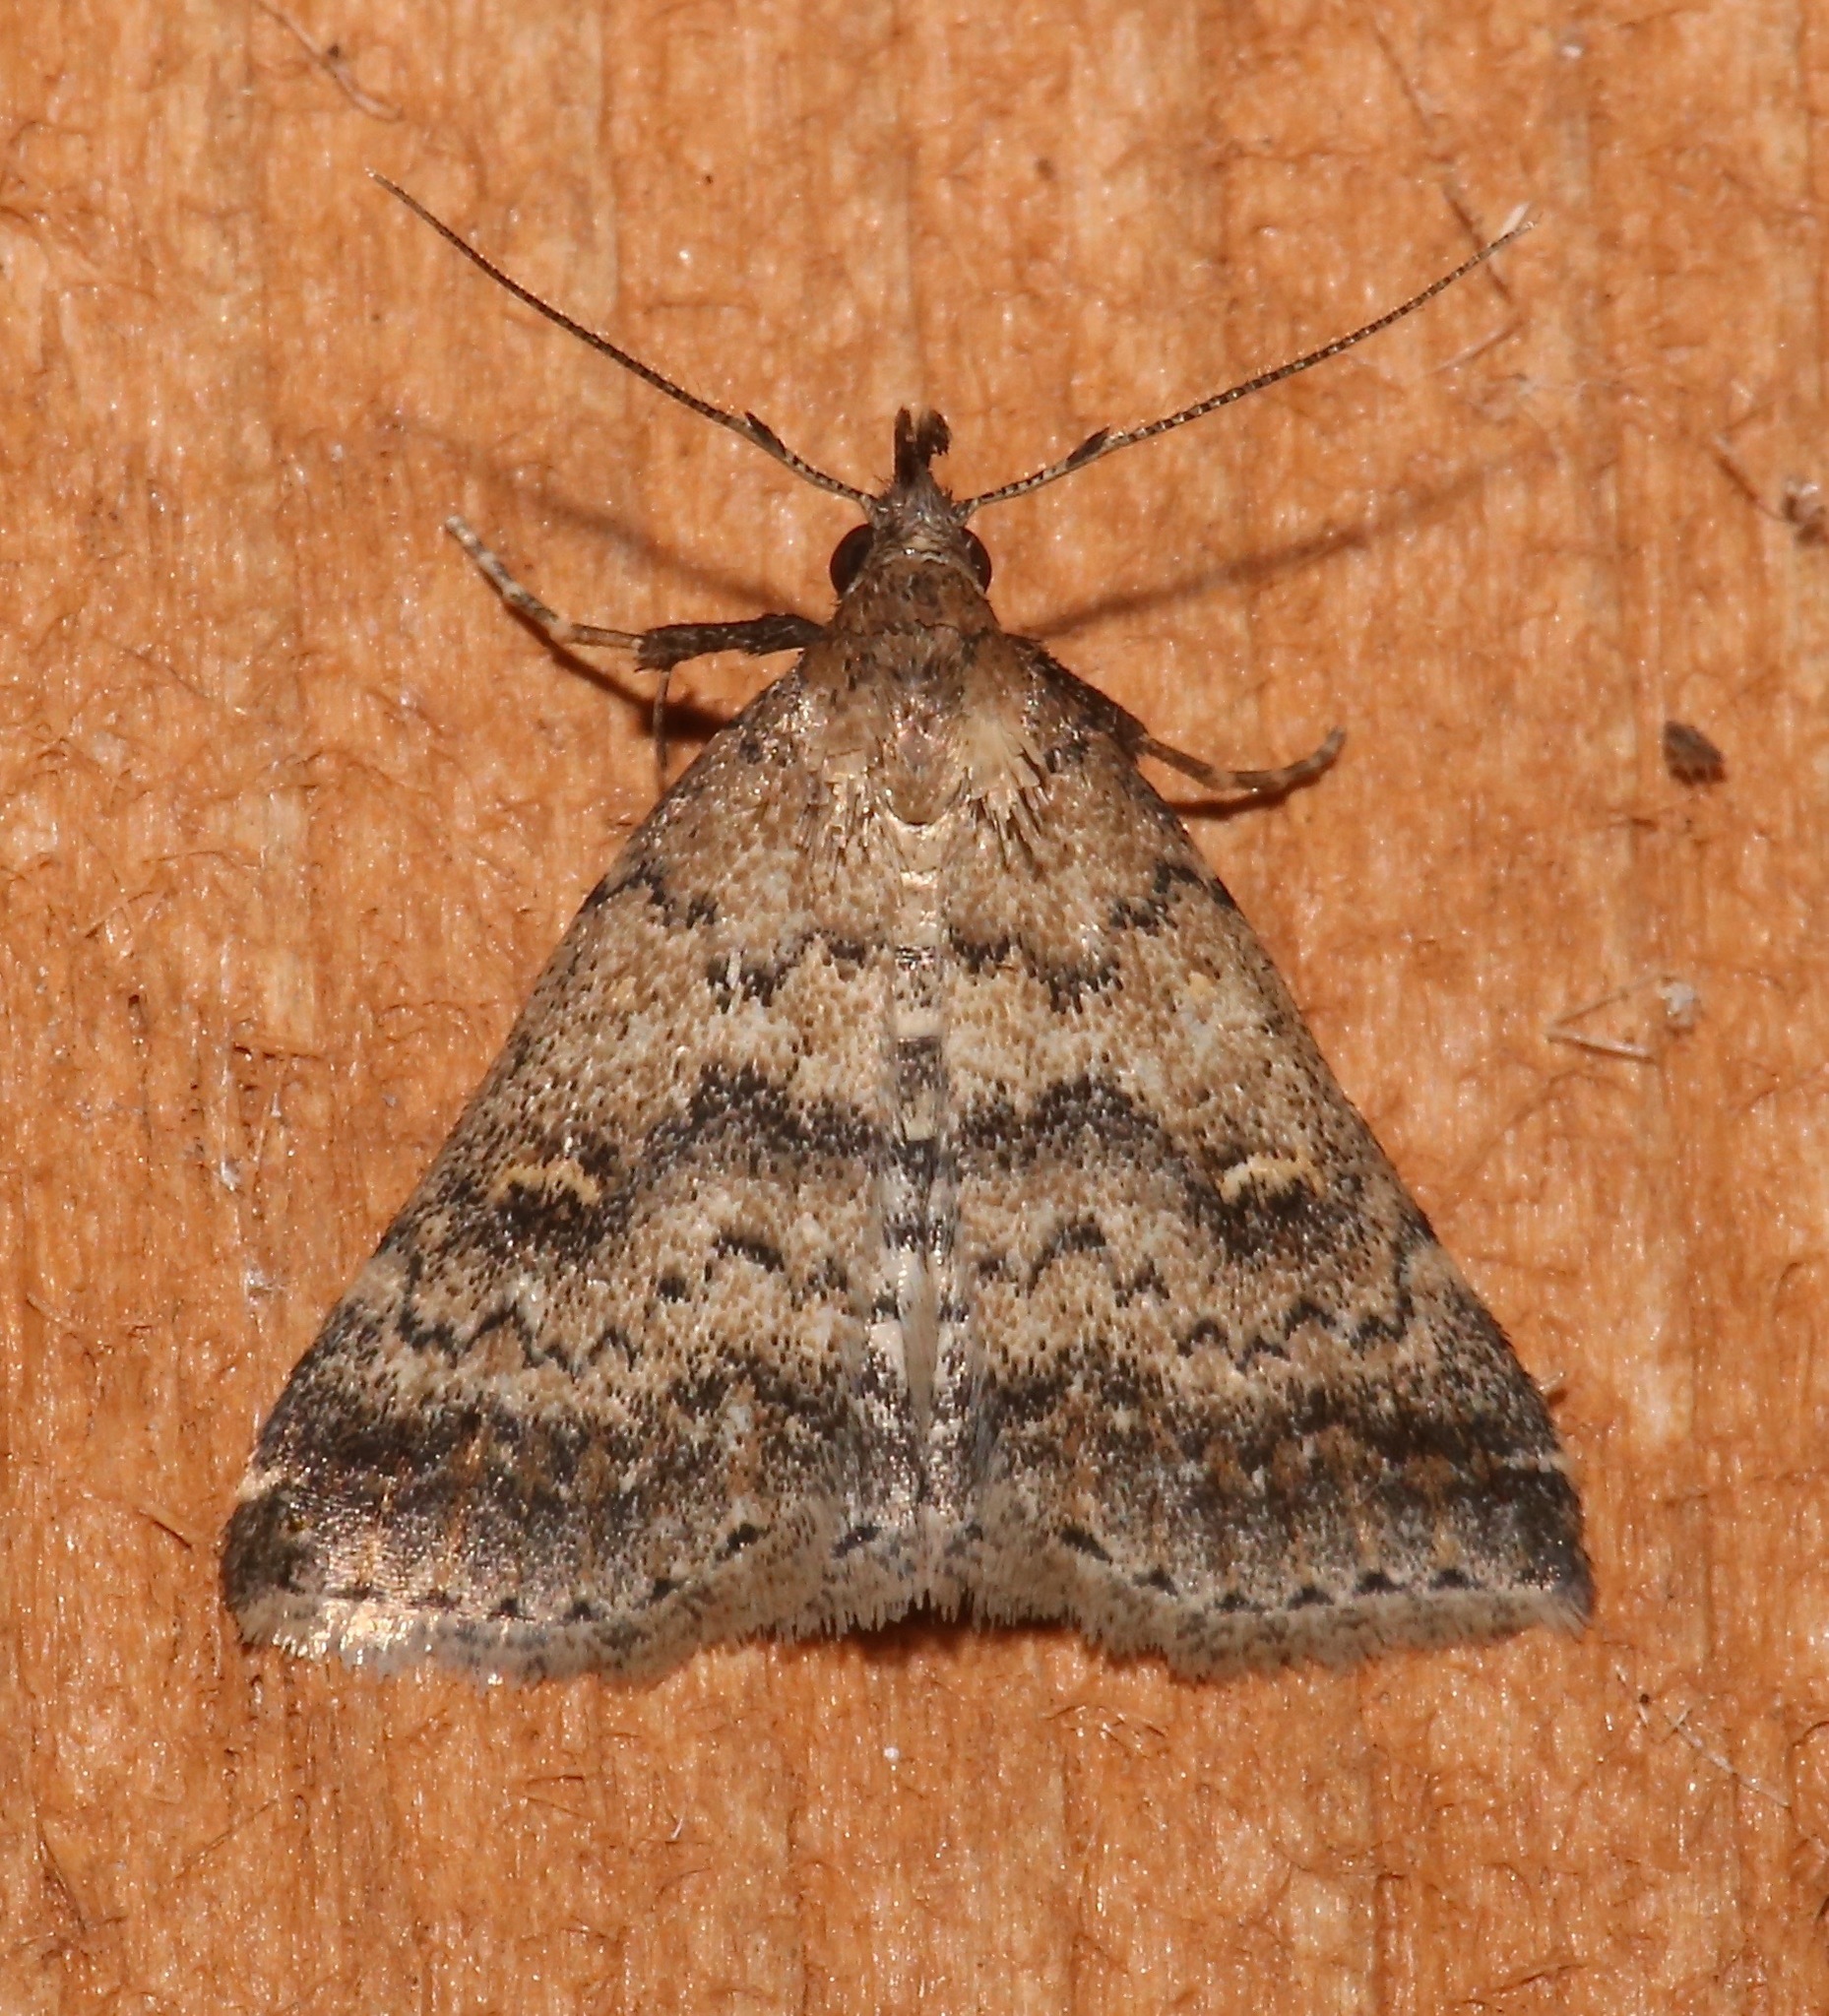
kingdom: Animalia
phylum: Arthropoda
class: Insecta
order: Lepidoptera
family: Erebidae
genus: Tetanolita
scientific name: Tetanolita floridana
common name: Florida tetanolita moth
